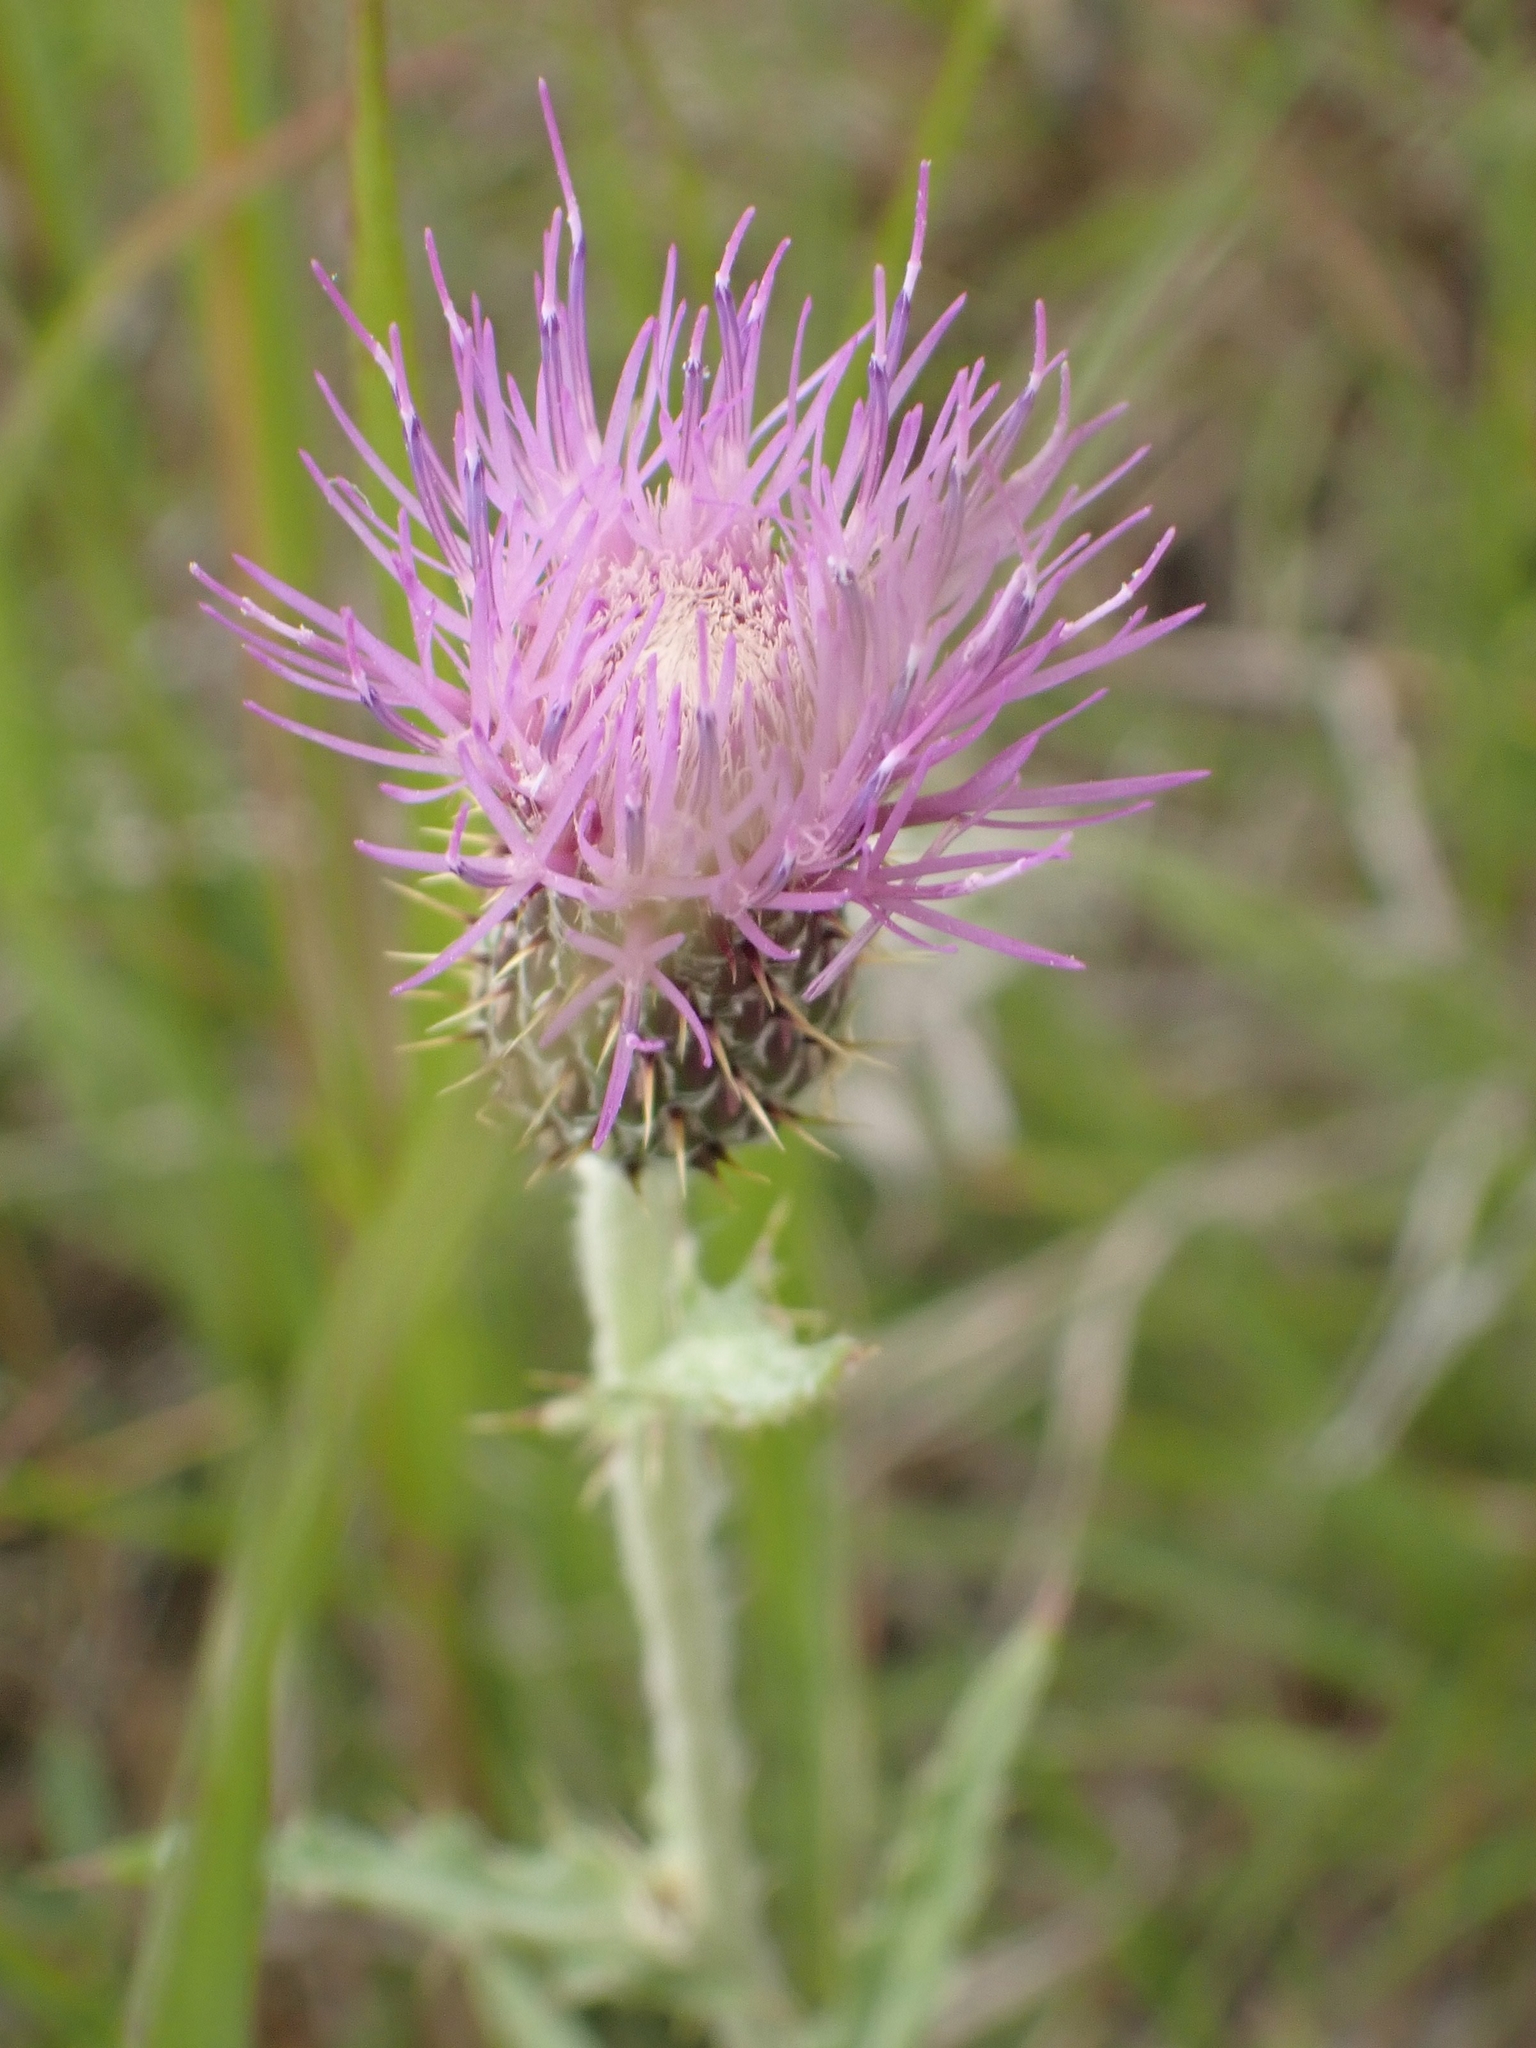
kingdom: Plantae
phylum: Tracheophyta
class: Magnoliopsida
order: Asterales
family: Asteraceae
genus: Cirsium
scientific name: Cirsium flodmanii
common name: Flodman's thistle
